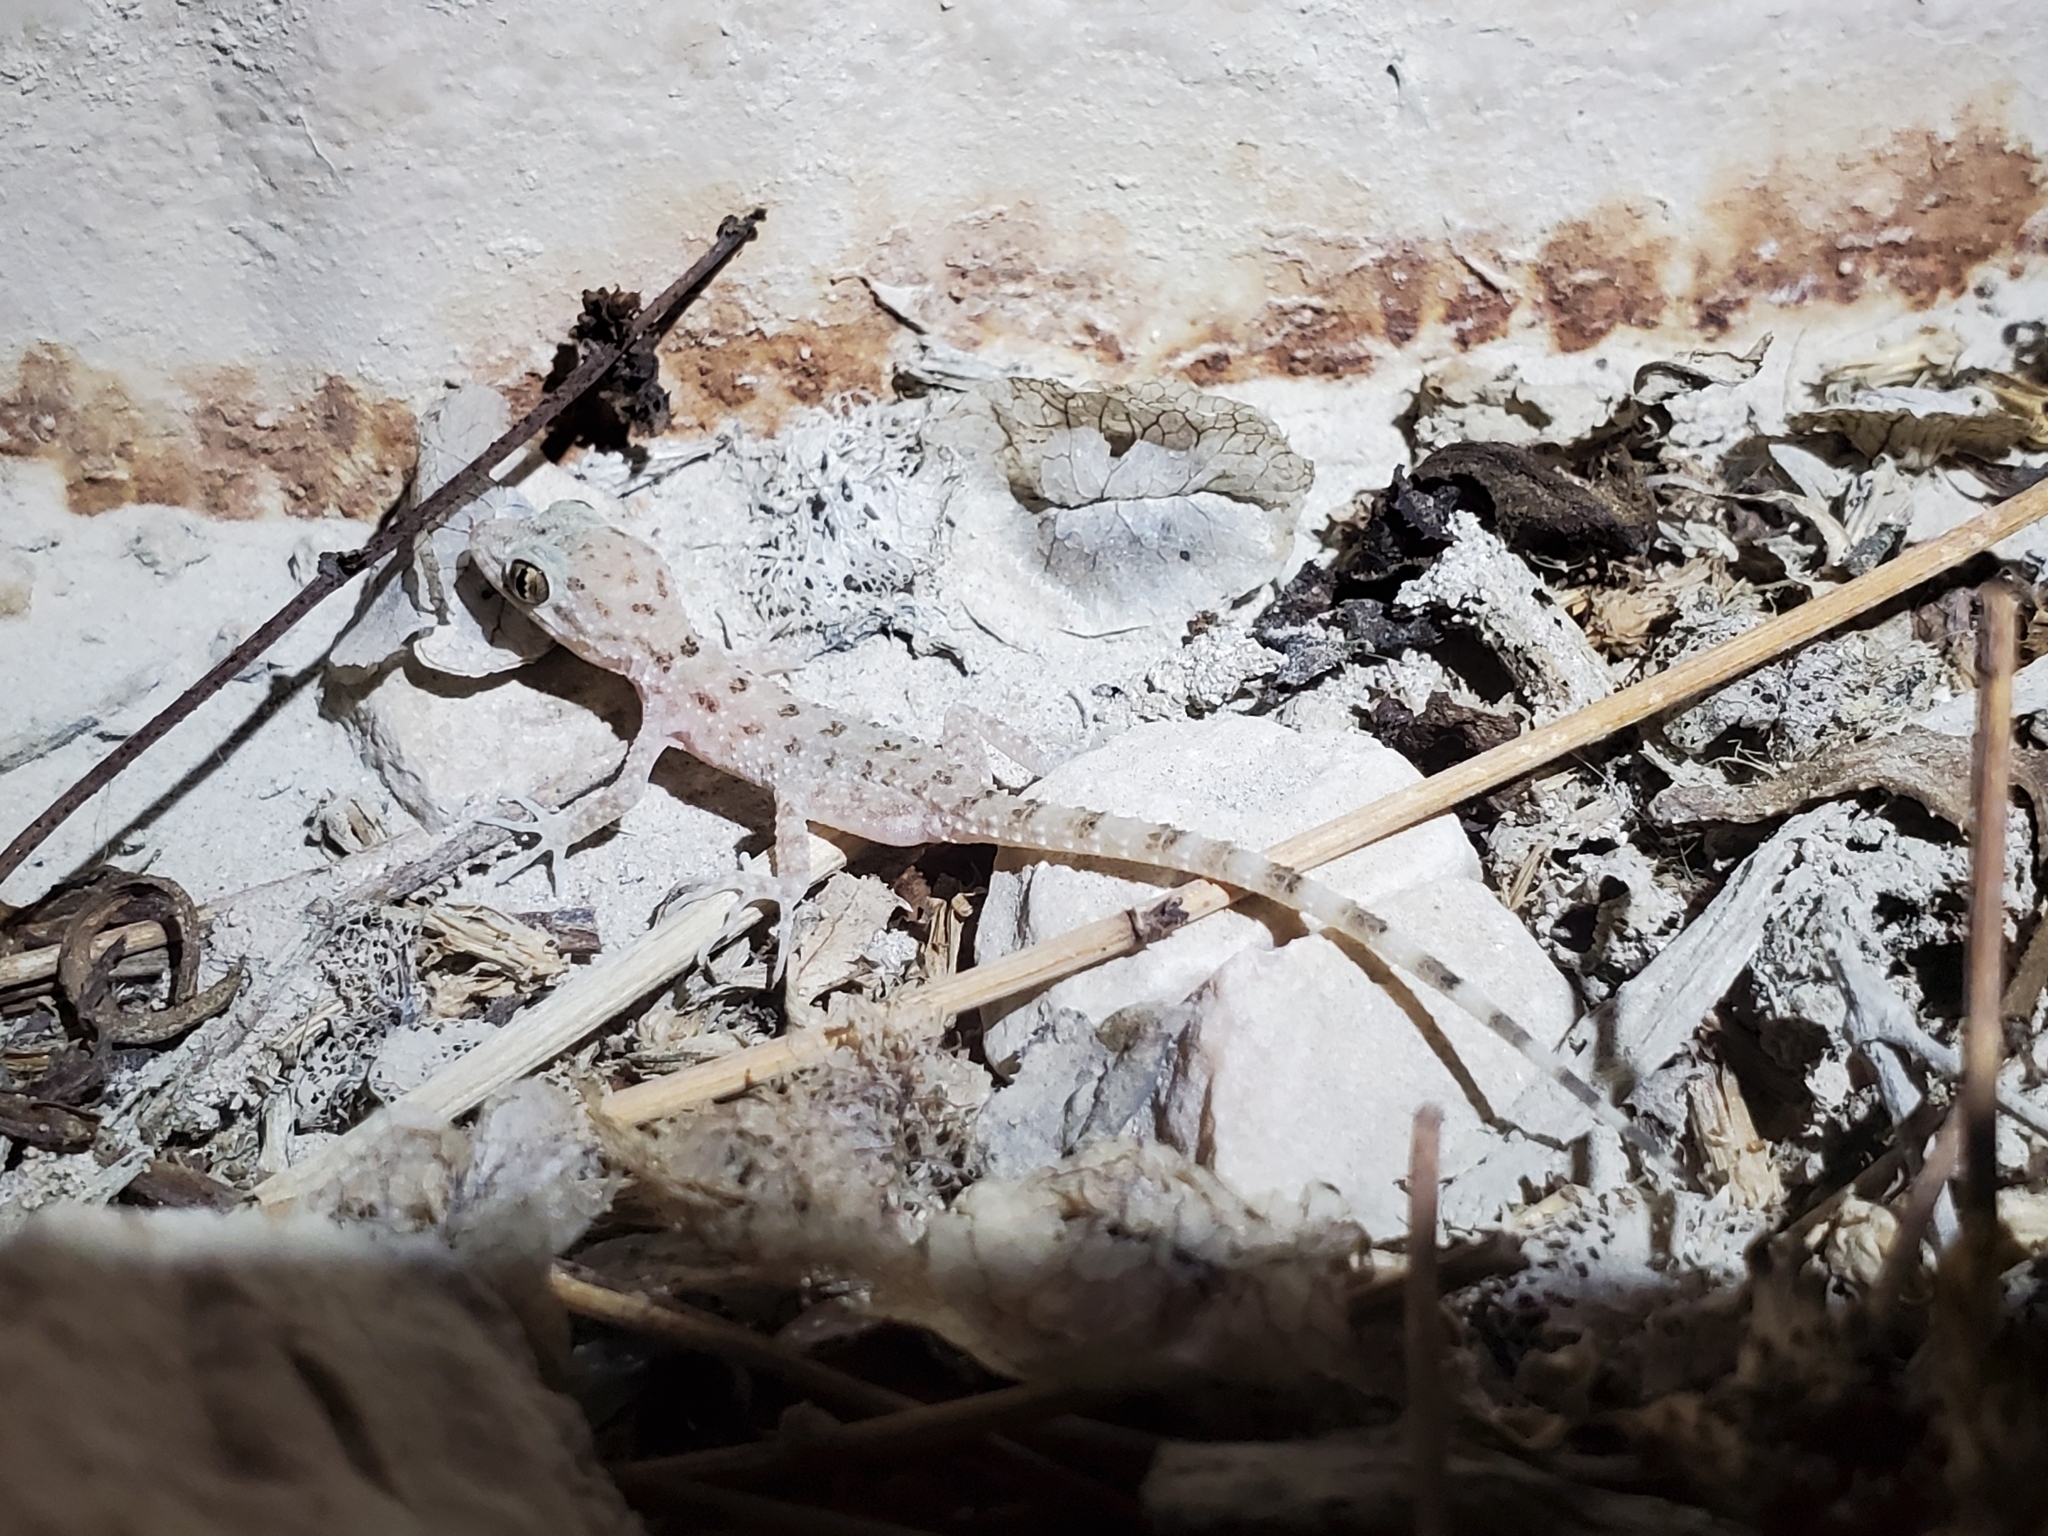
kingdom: Animalia
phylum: Chordata
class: Squamata
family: Gekkonidae
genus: Cyrtopodion
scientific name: Cyrtopodion scabrum
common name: Rough-tailed gecko
